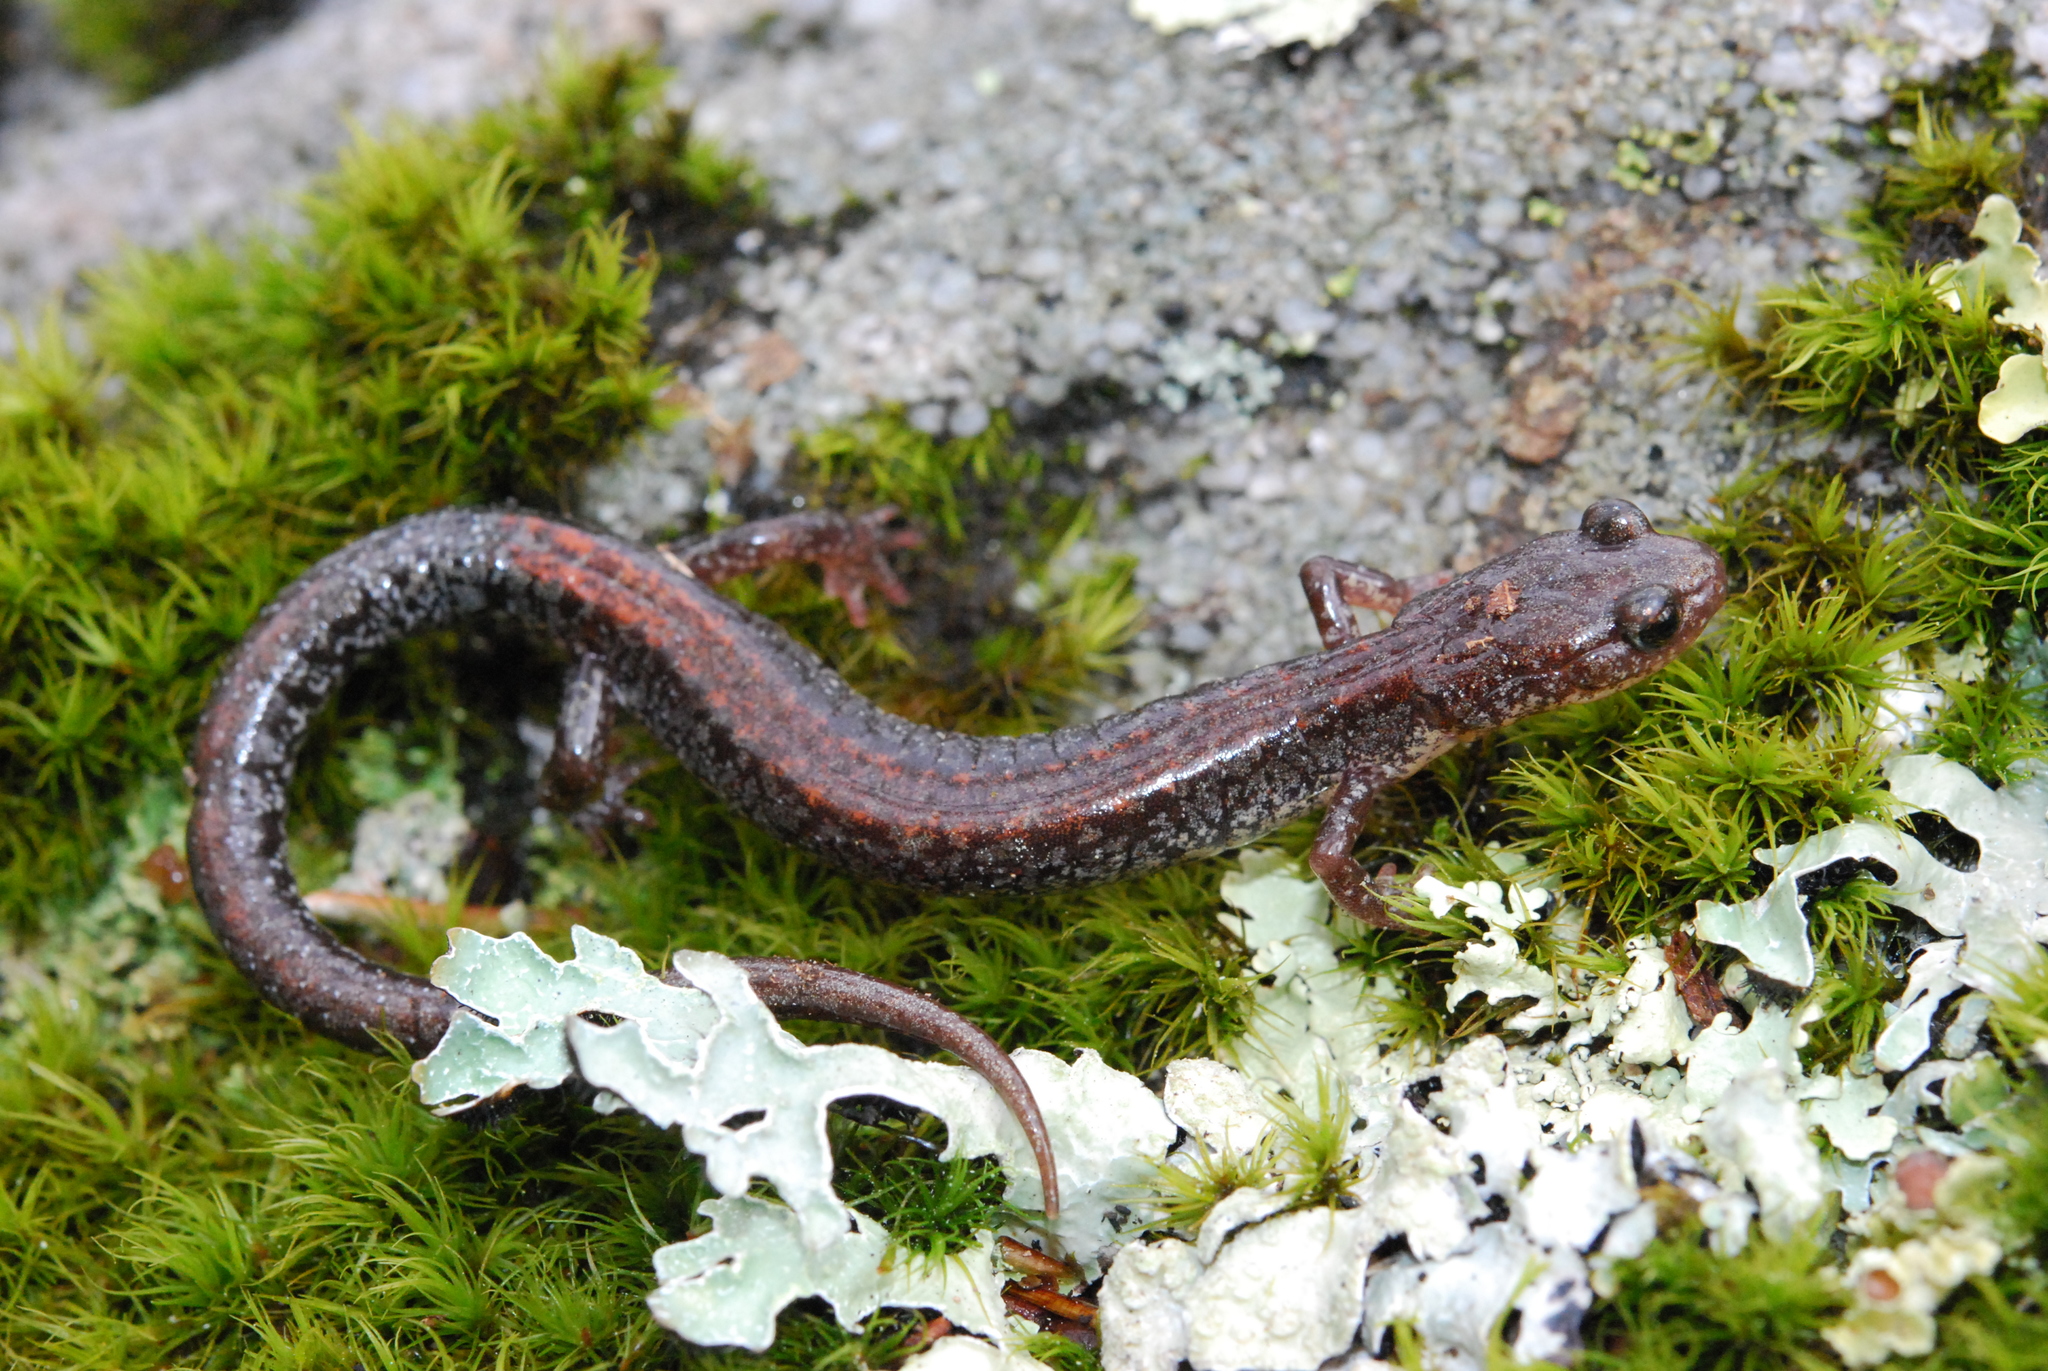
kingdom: Animalia
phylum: Chordata
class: Amphibia
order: Caudata
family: Plethodontidae
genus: Plethodon
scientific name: Plethodon sherando
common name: Big levels salamander
